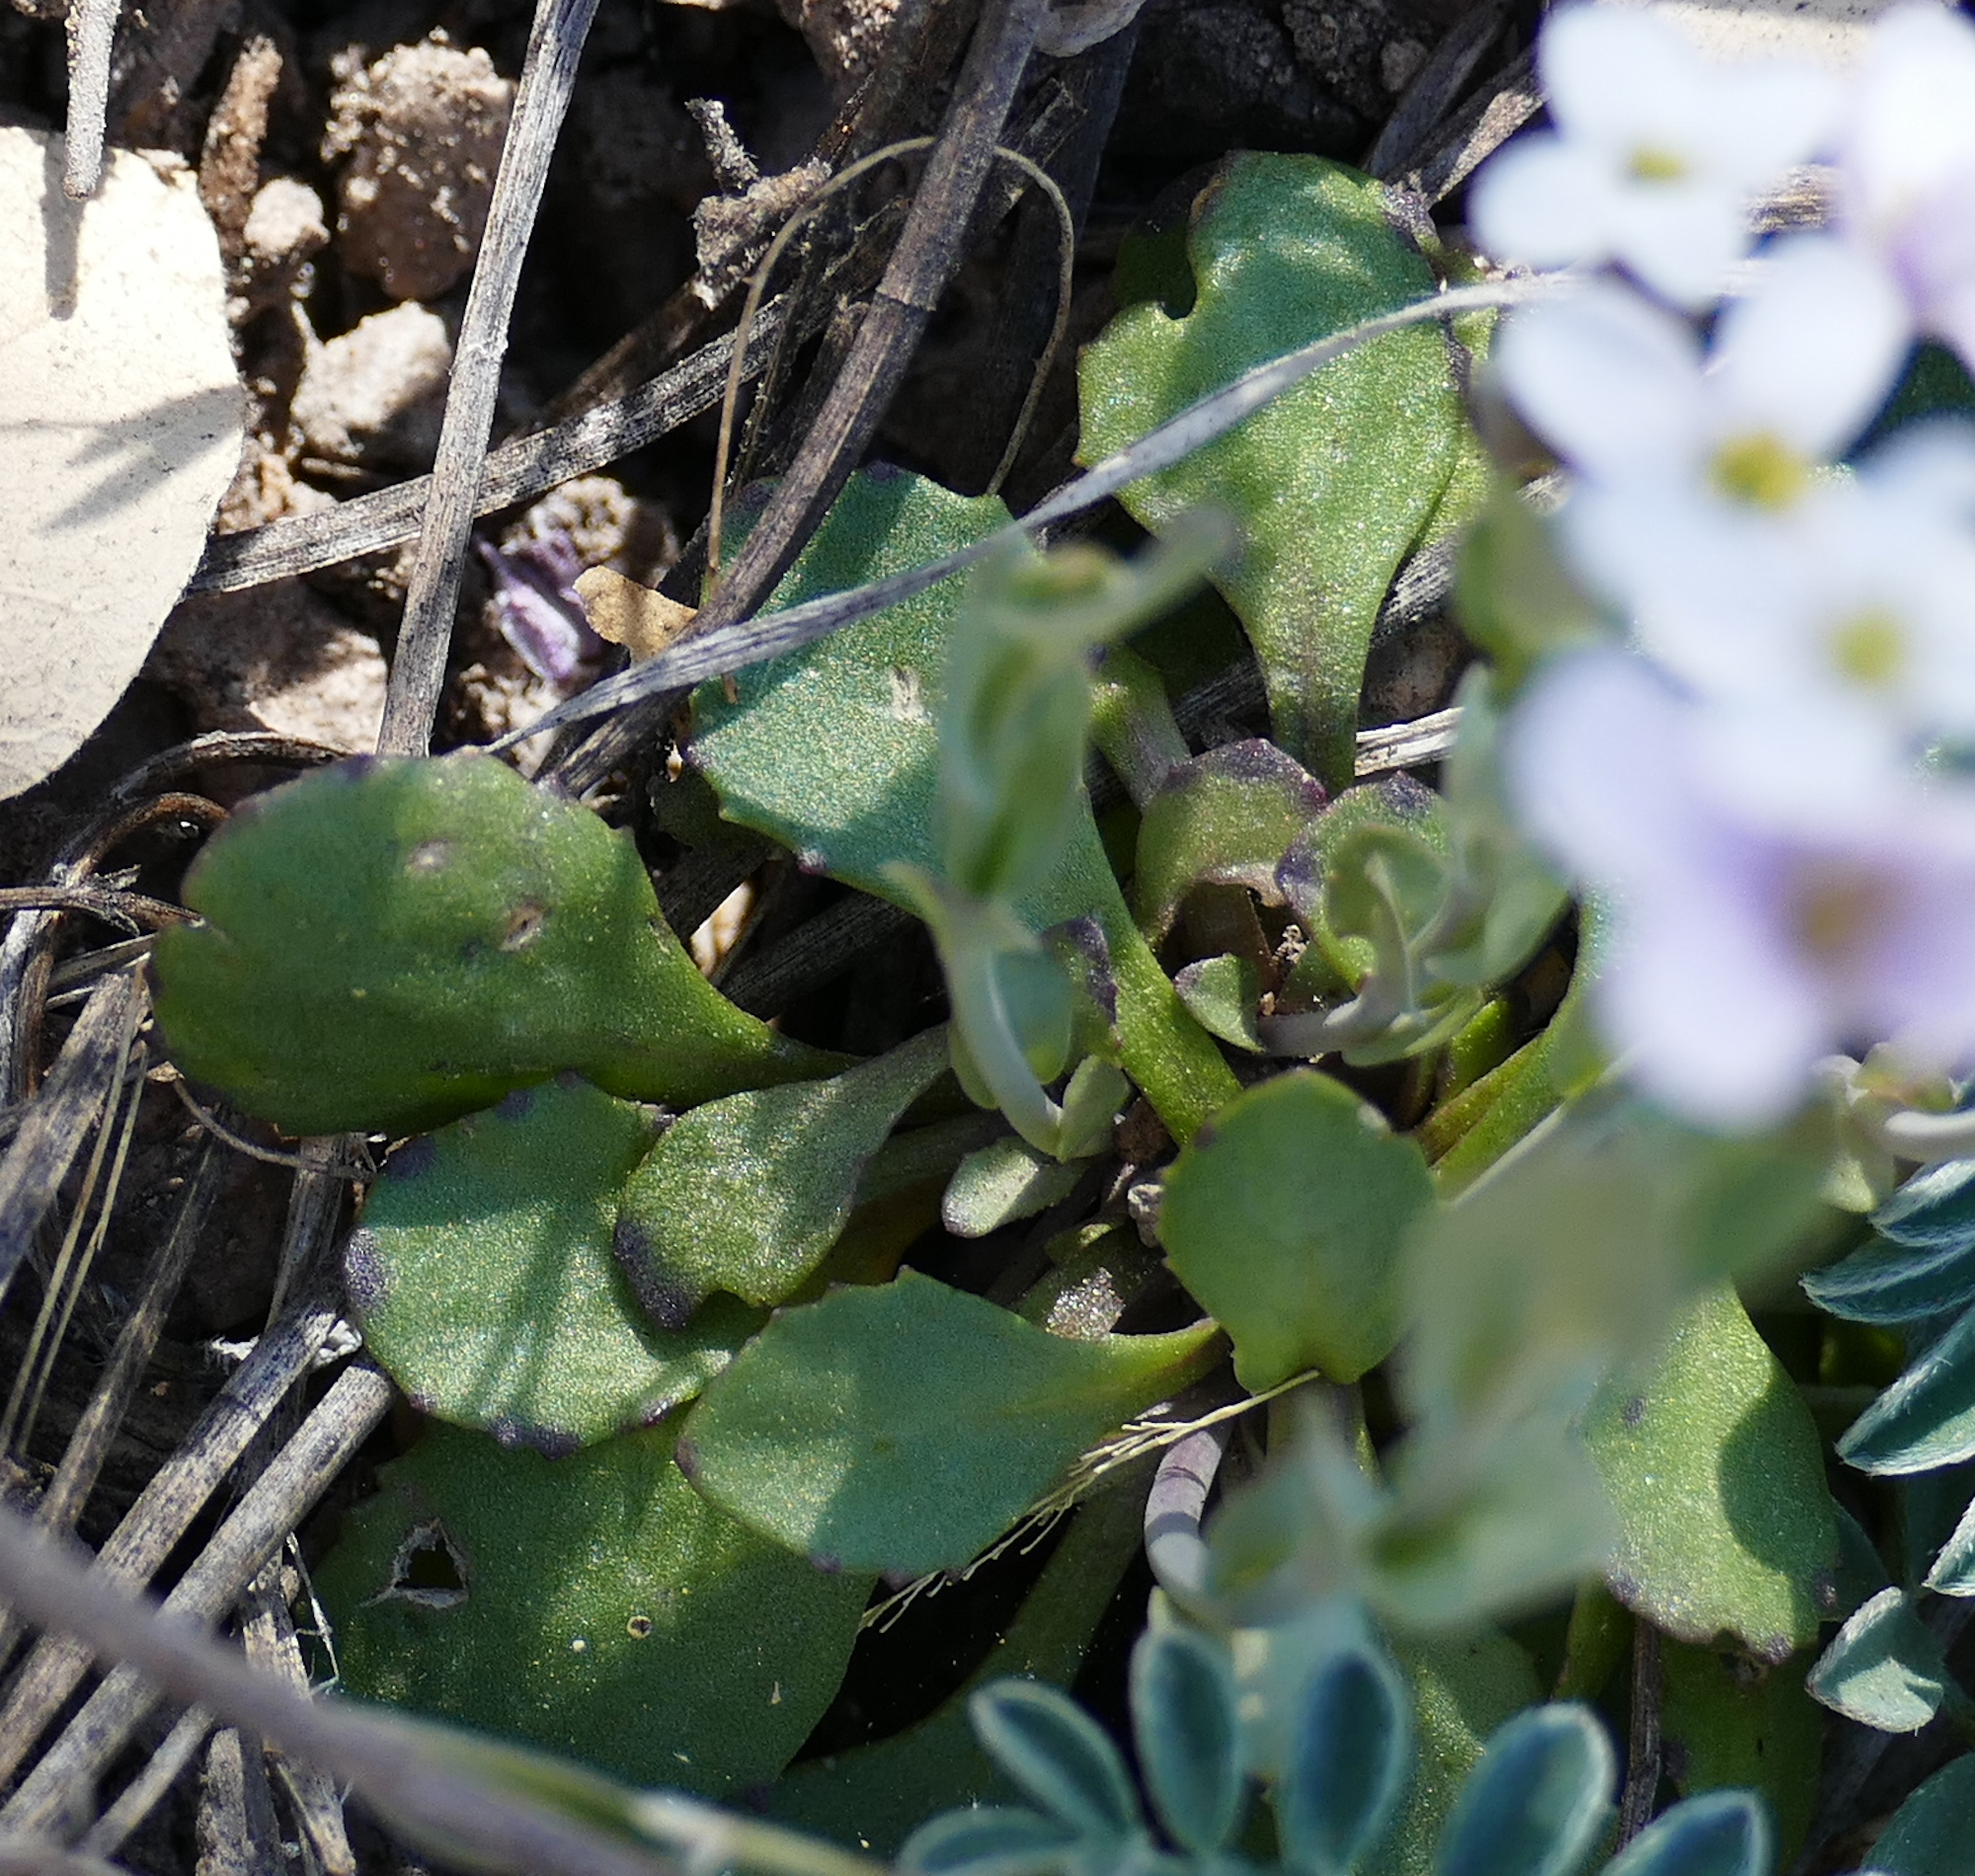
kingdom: Plantae
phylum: Tracheophyta
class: Magnoliopsida
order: Brassicales
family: Brassicaceae
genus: Noccaea
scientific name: Noccaea fendleri
